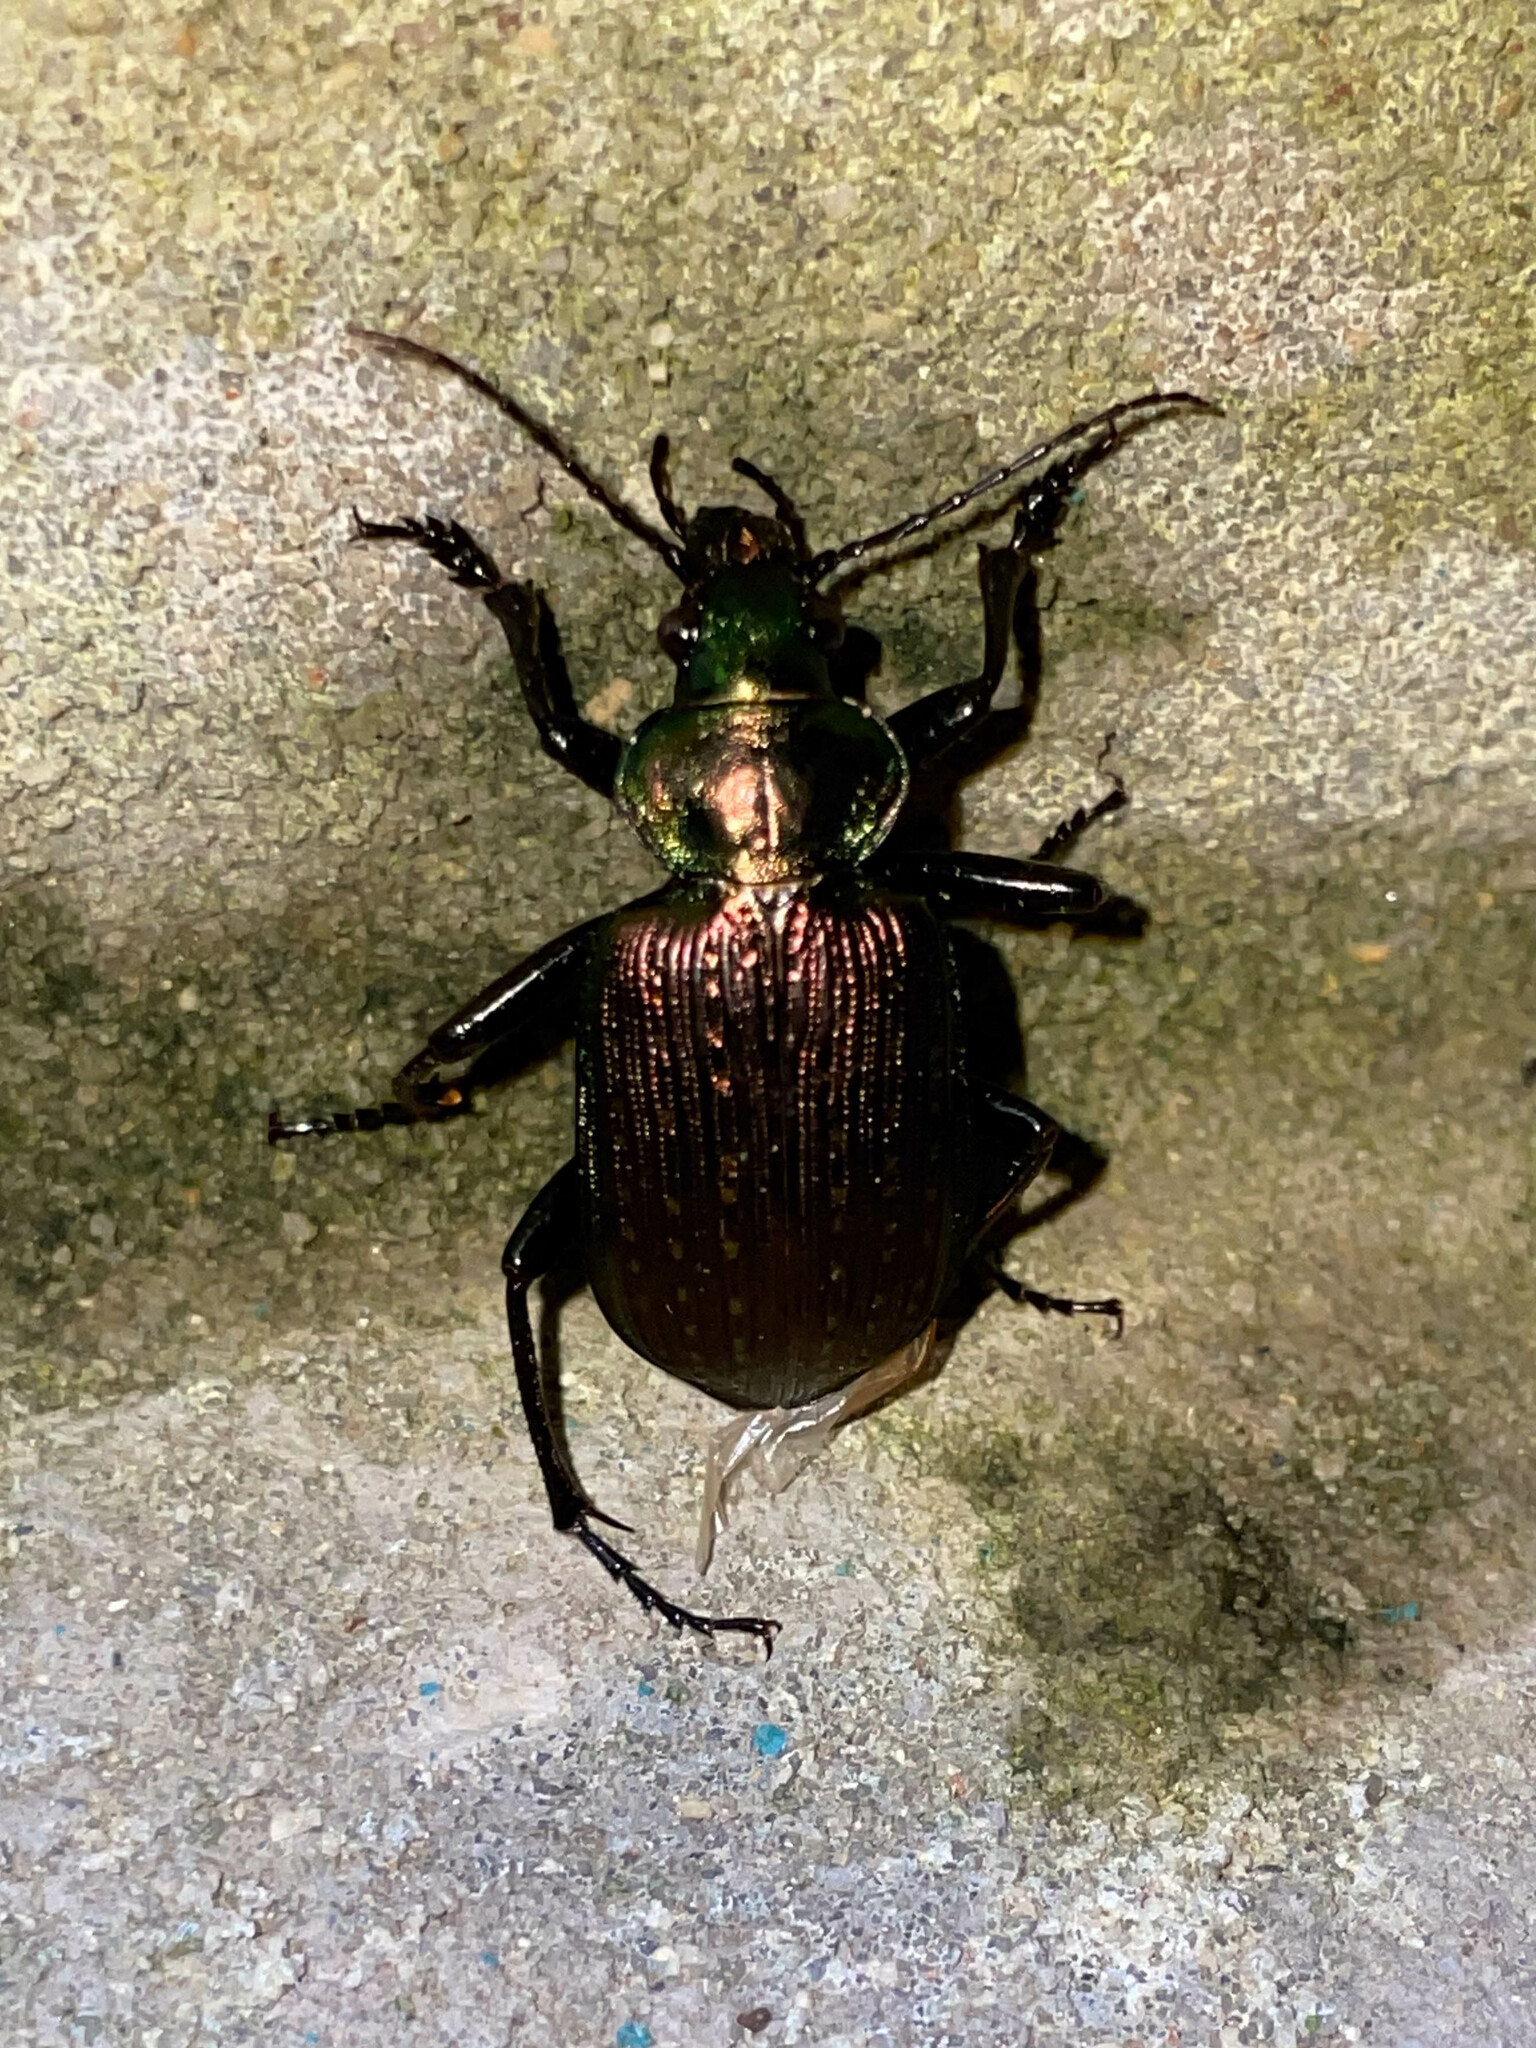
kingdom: Animalia
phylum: Arthropoda
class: Insecta
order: Coleoptera
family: Carabidae
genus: Calosoma
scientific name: Calosoma alternans
